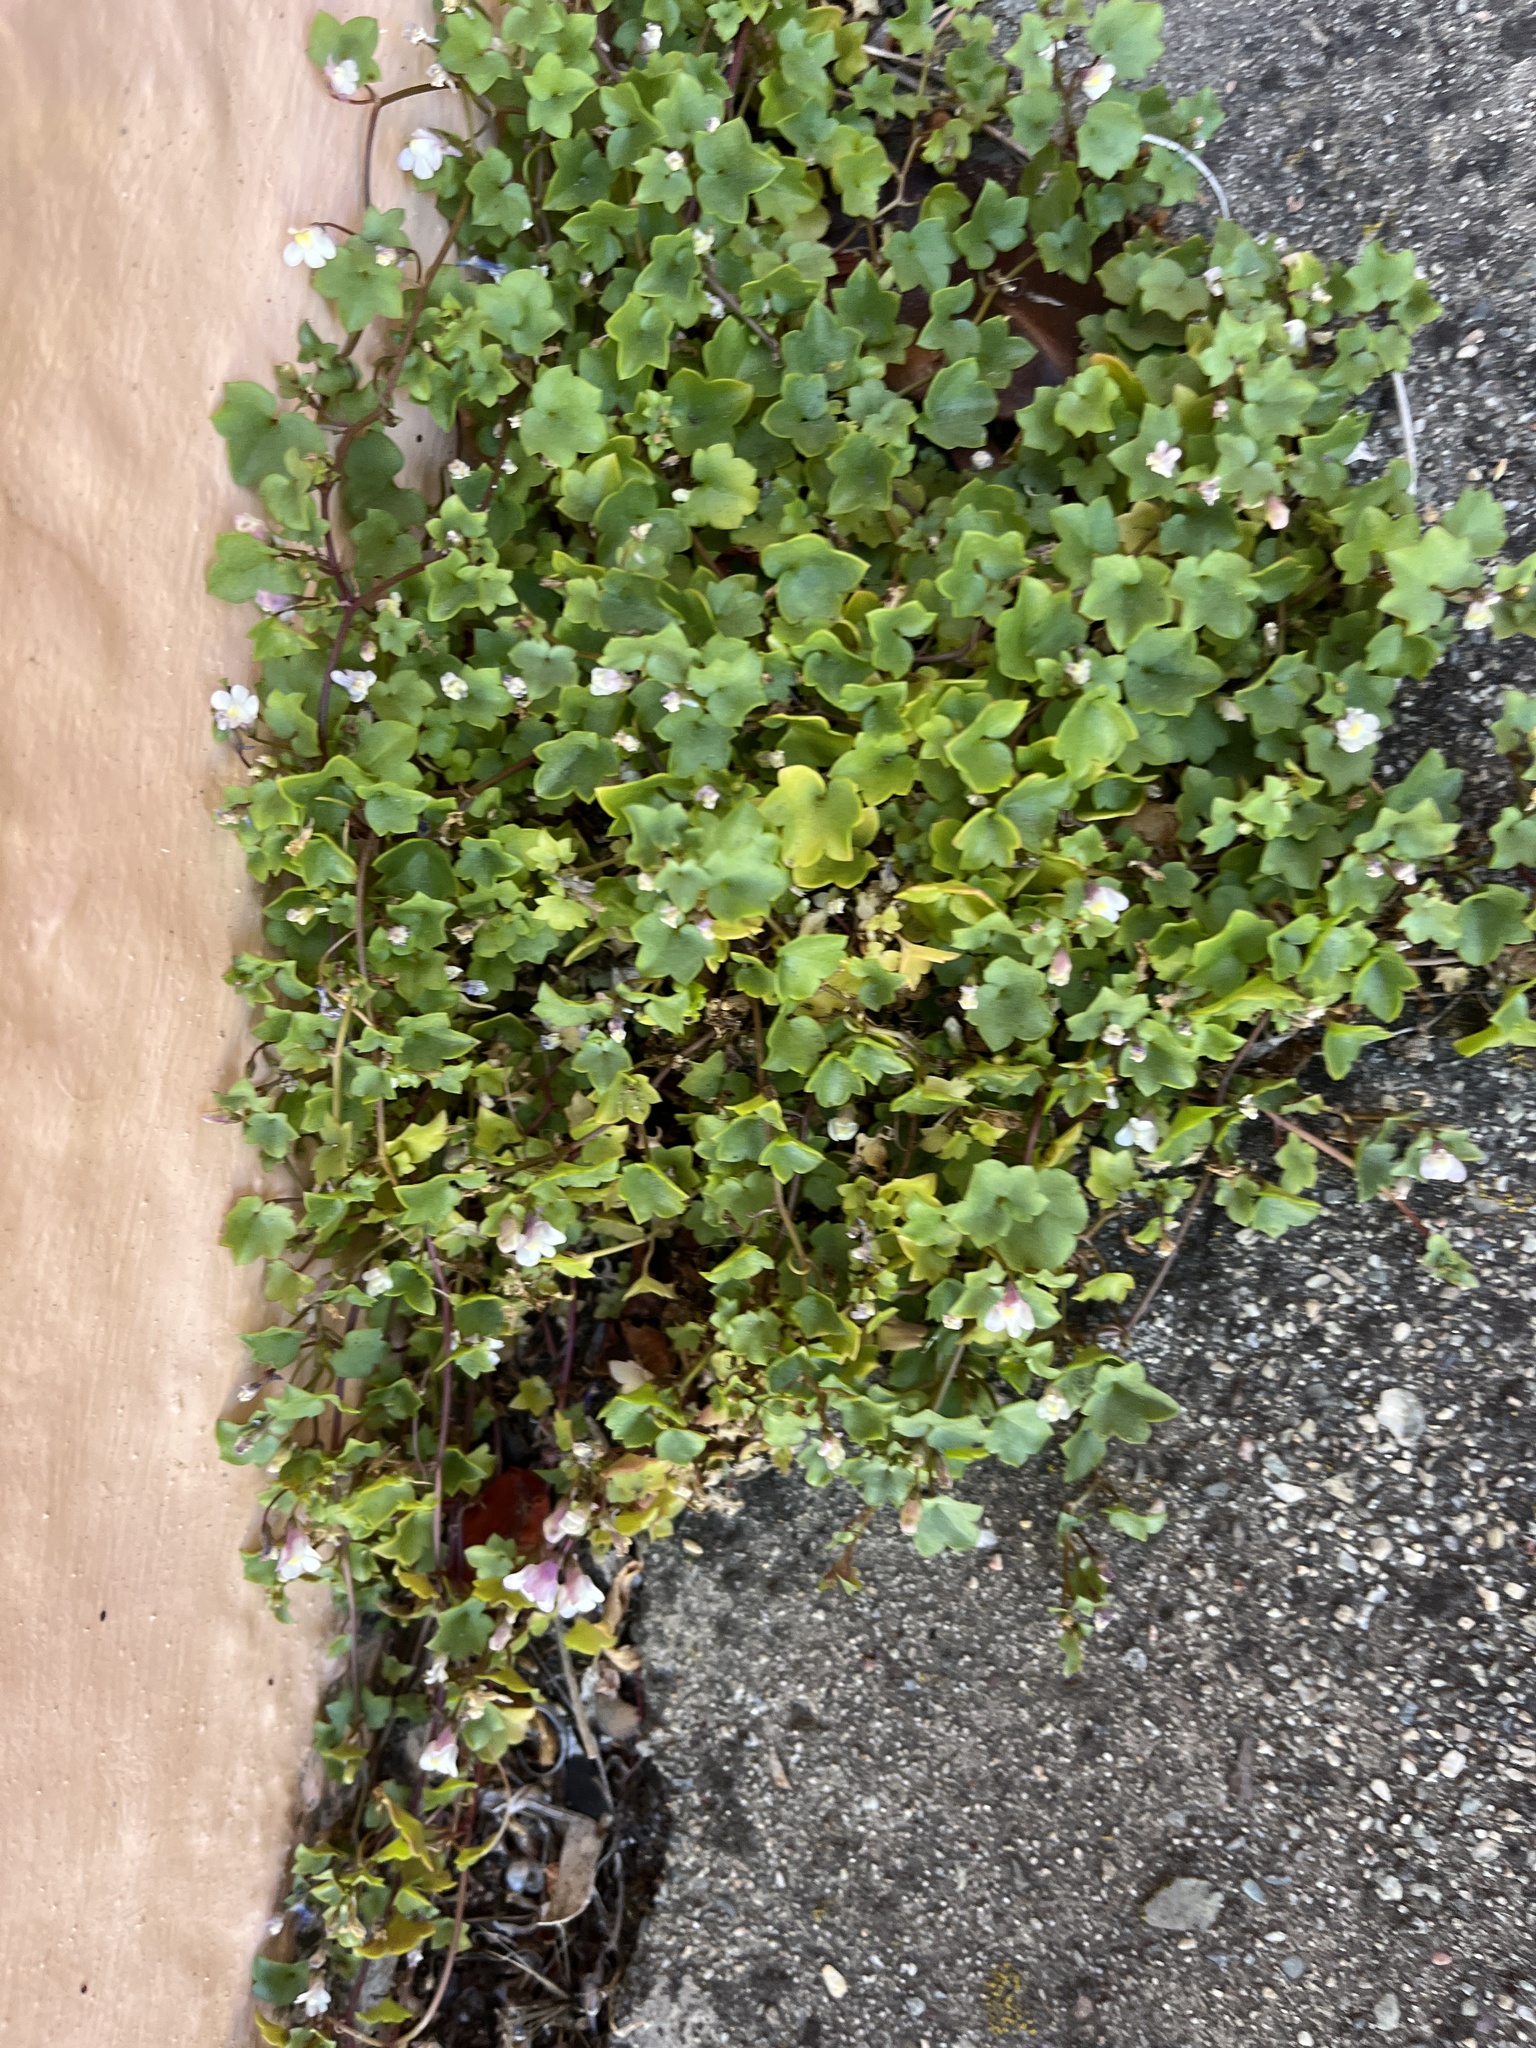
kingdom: Plantae
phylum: Tracheophyta
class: Magnoliopsida
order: Lamiales
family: Plantaginaceae
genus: Cymbalaria
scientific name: Cymbalaria muralis
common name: Ivy-leaved toadflax
